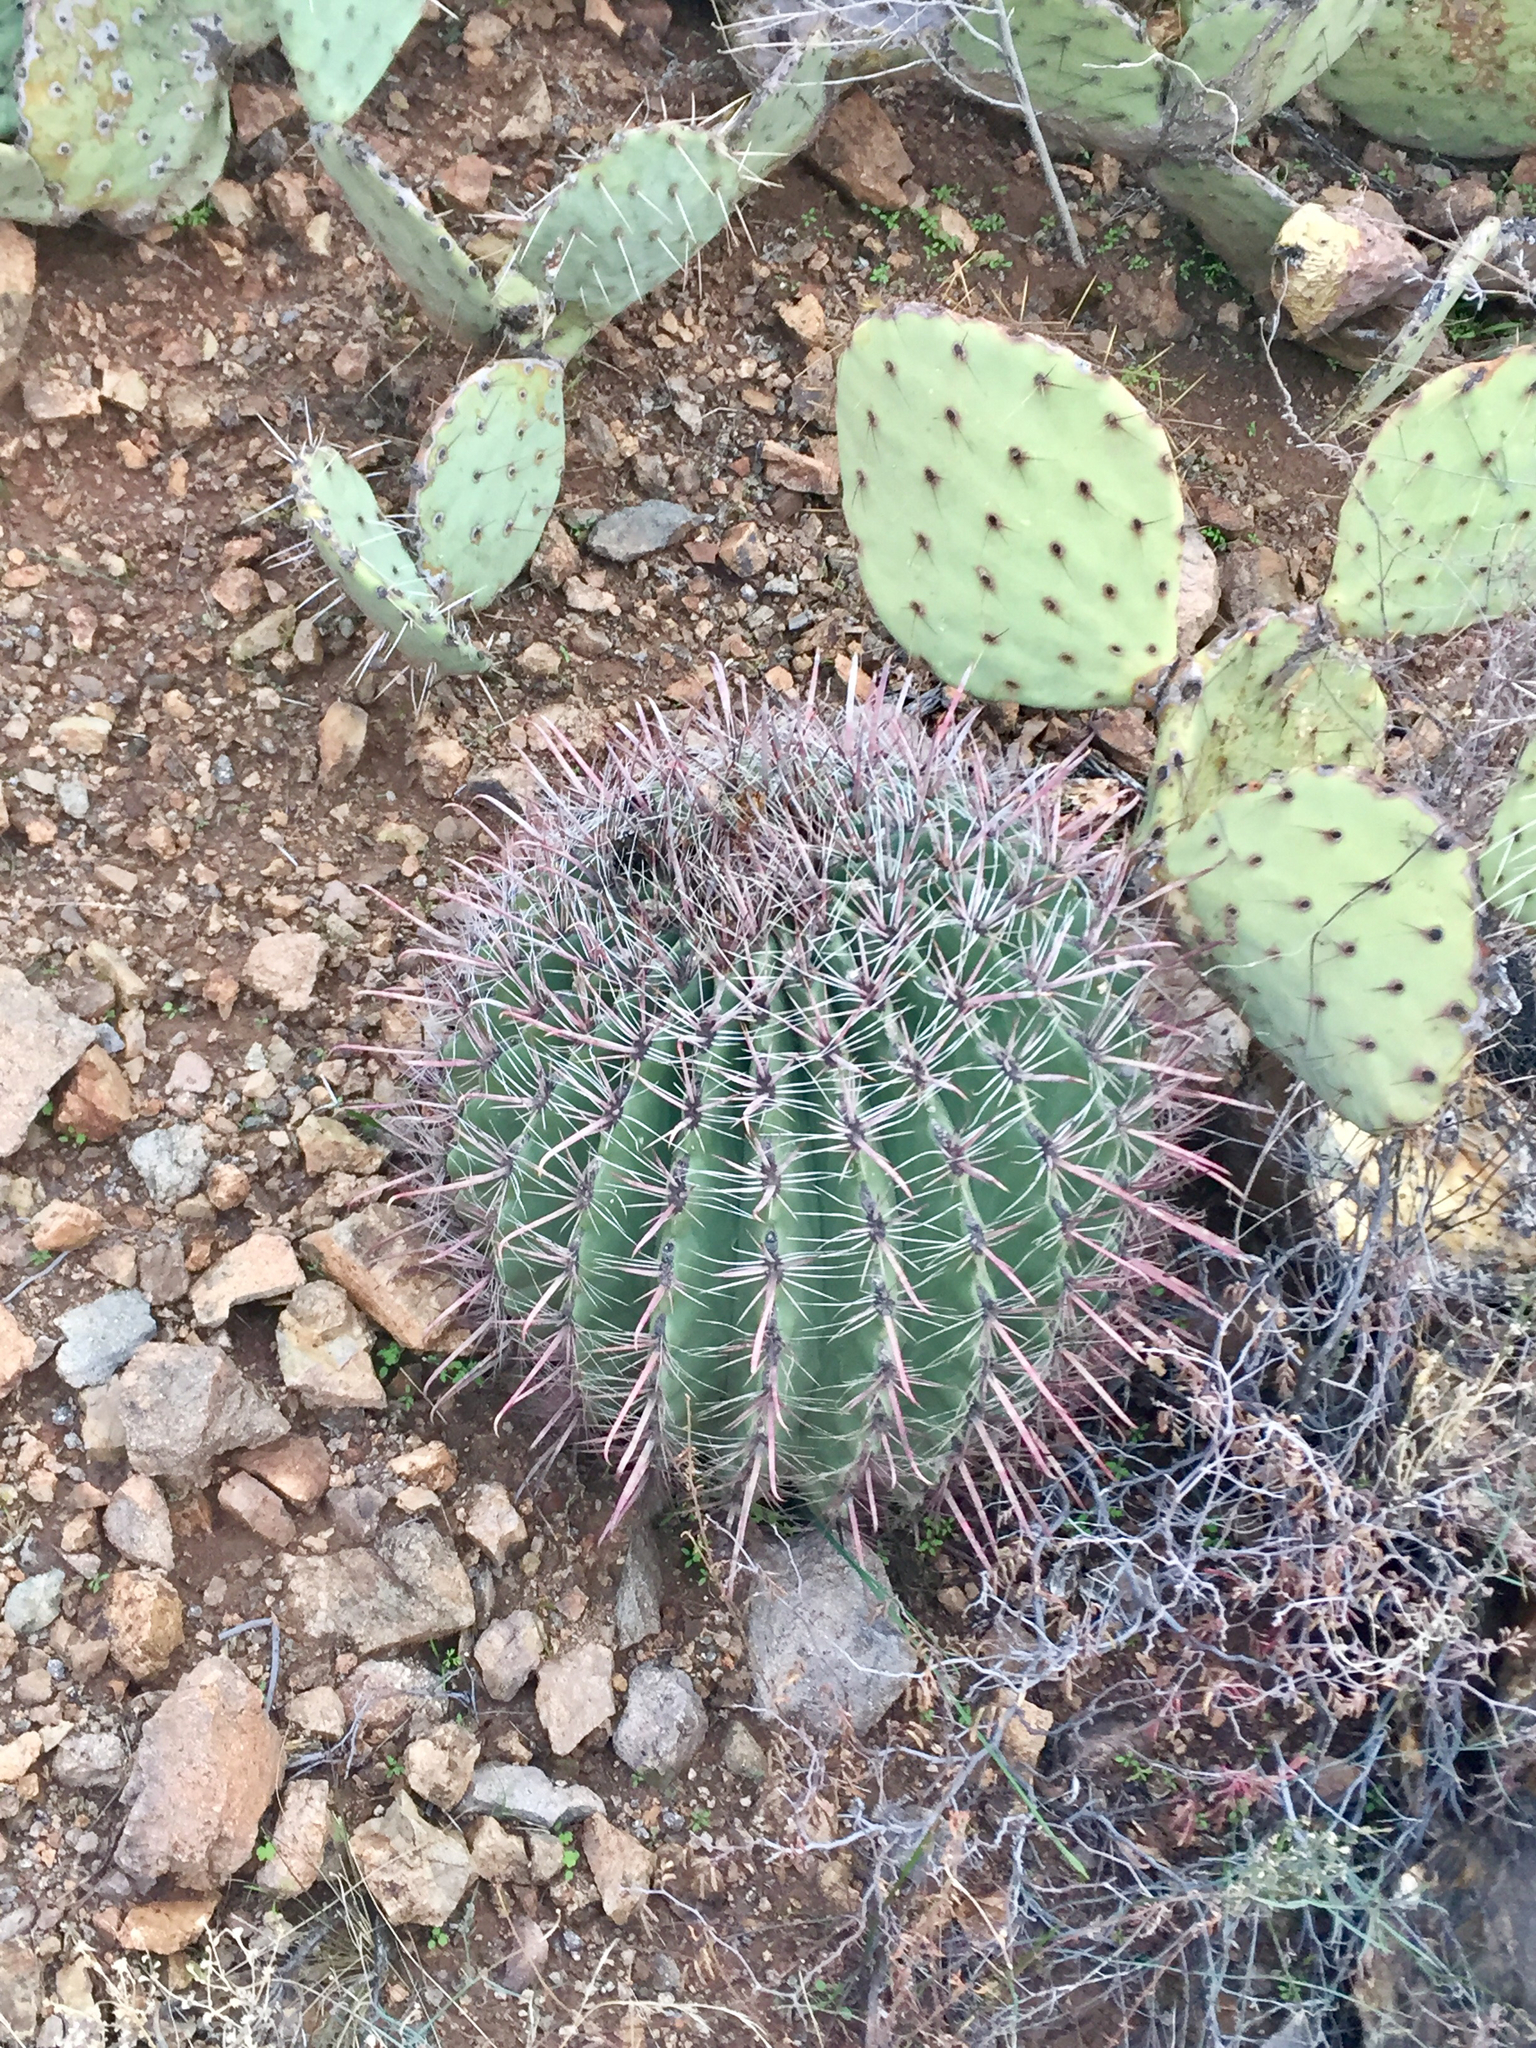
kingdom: Plantae
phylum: Tracheophyta
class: Magnoliopsida
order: Caryophyllales
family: Cactaceae
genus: Ferocactus
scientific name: Ferocactus wislizeni
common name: Candy barrel cactus
